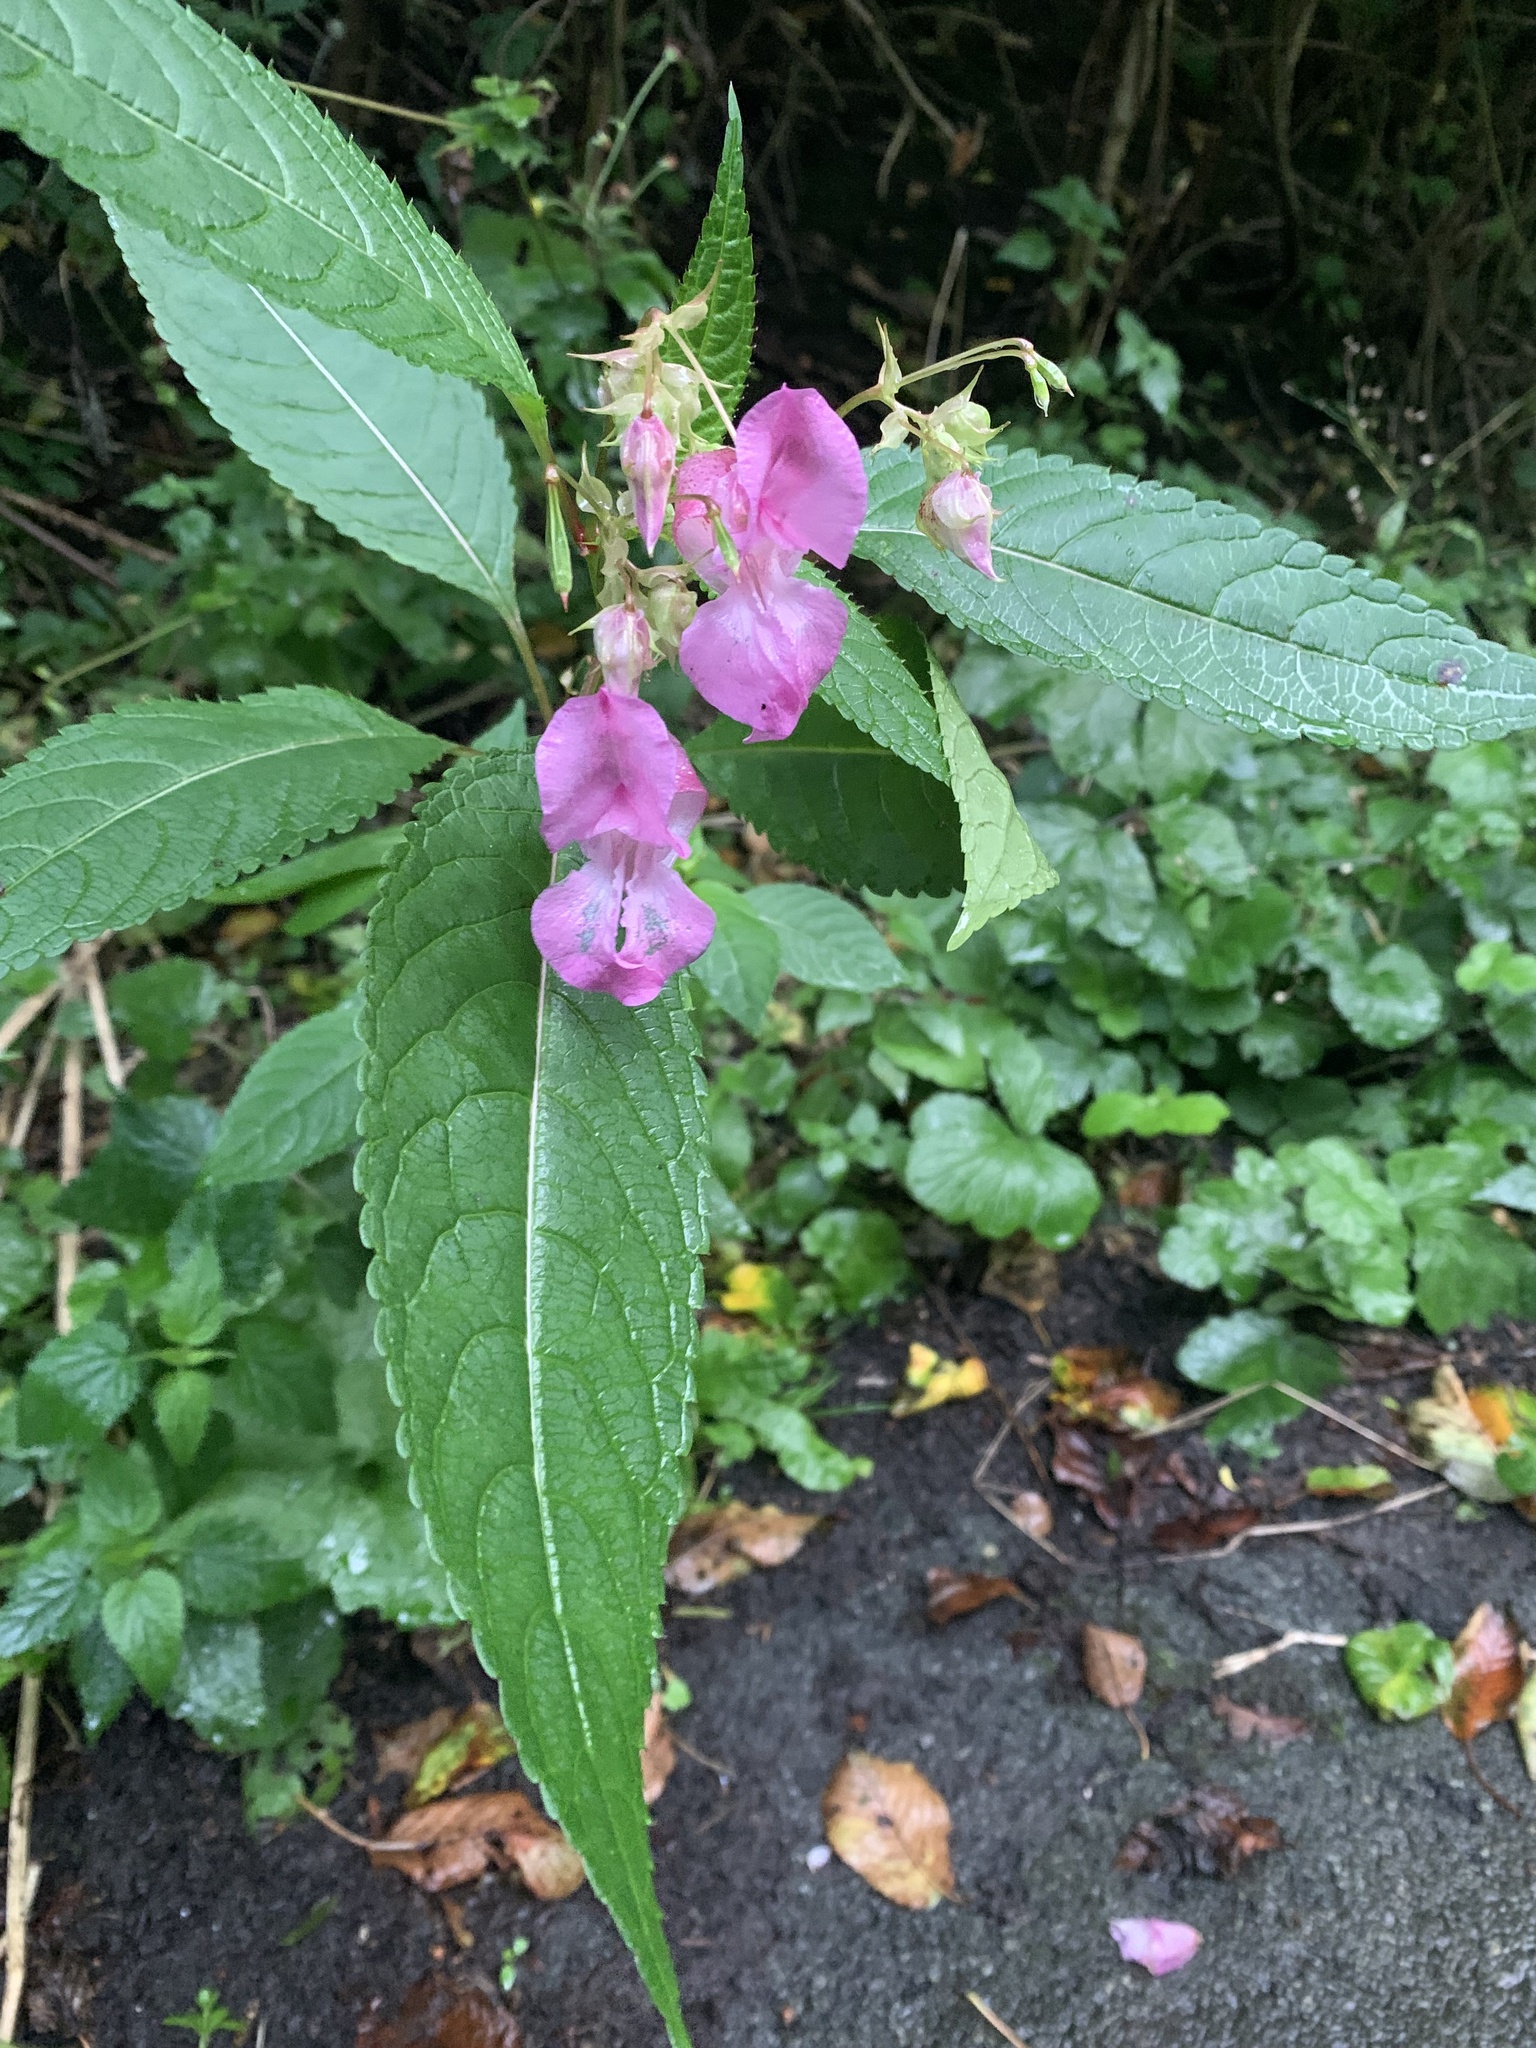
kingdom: Plantae
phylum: Tracheophyta
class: Magnoliopsida
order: Ericales
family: Balsaminaceae
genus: Impatiens
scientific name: Impatiens glandulifera
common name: Himalayan balsam
